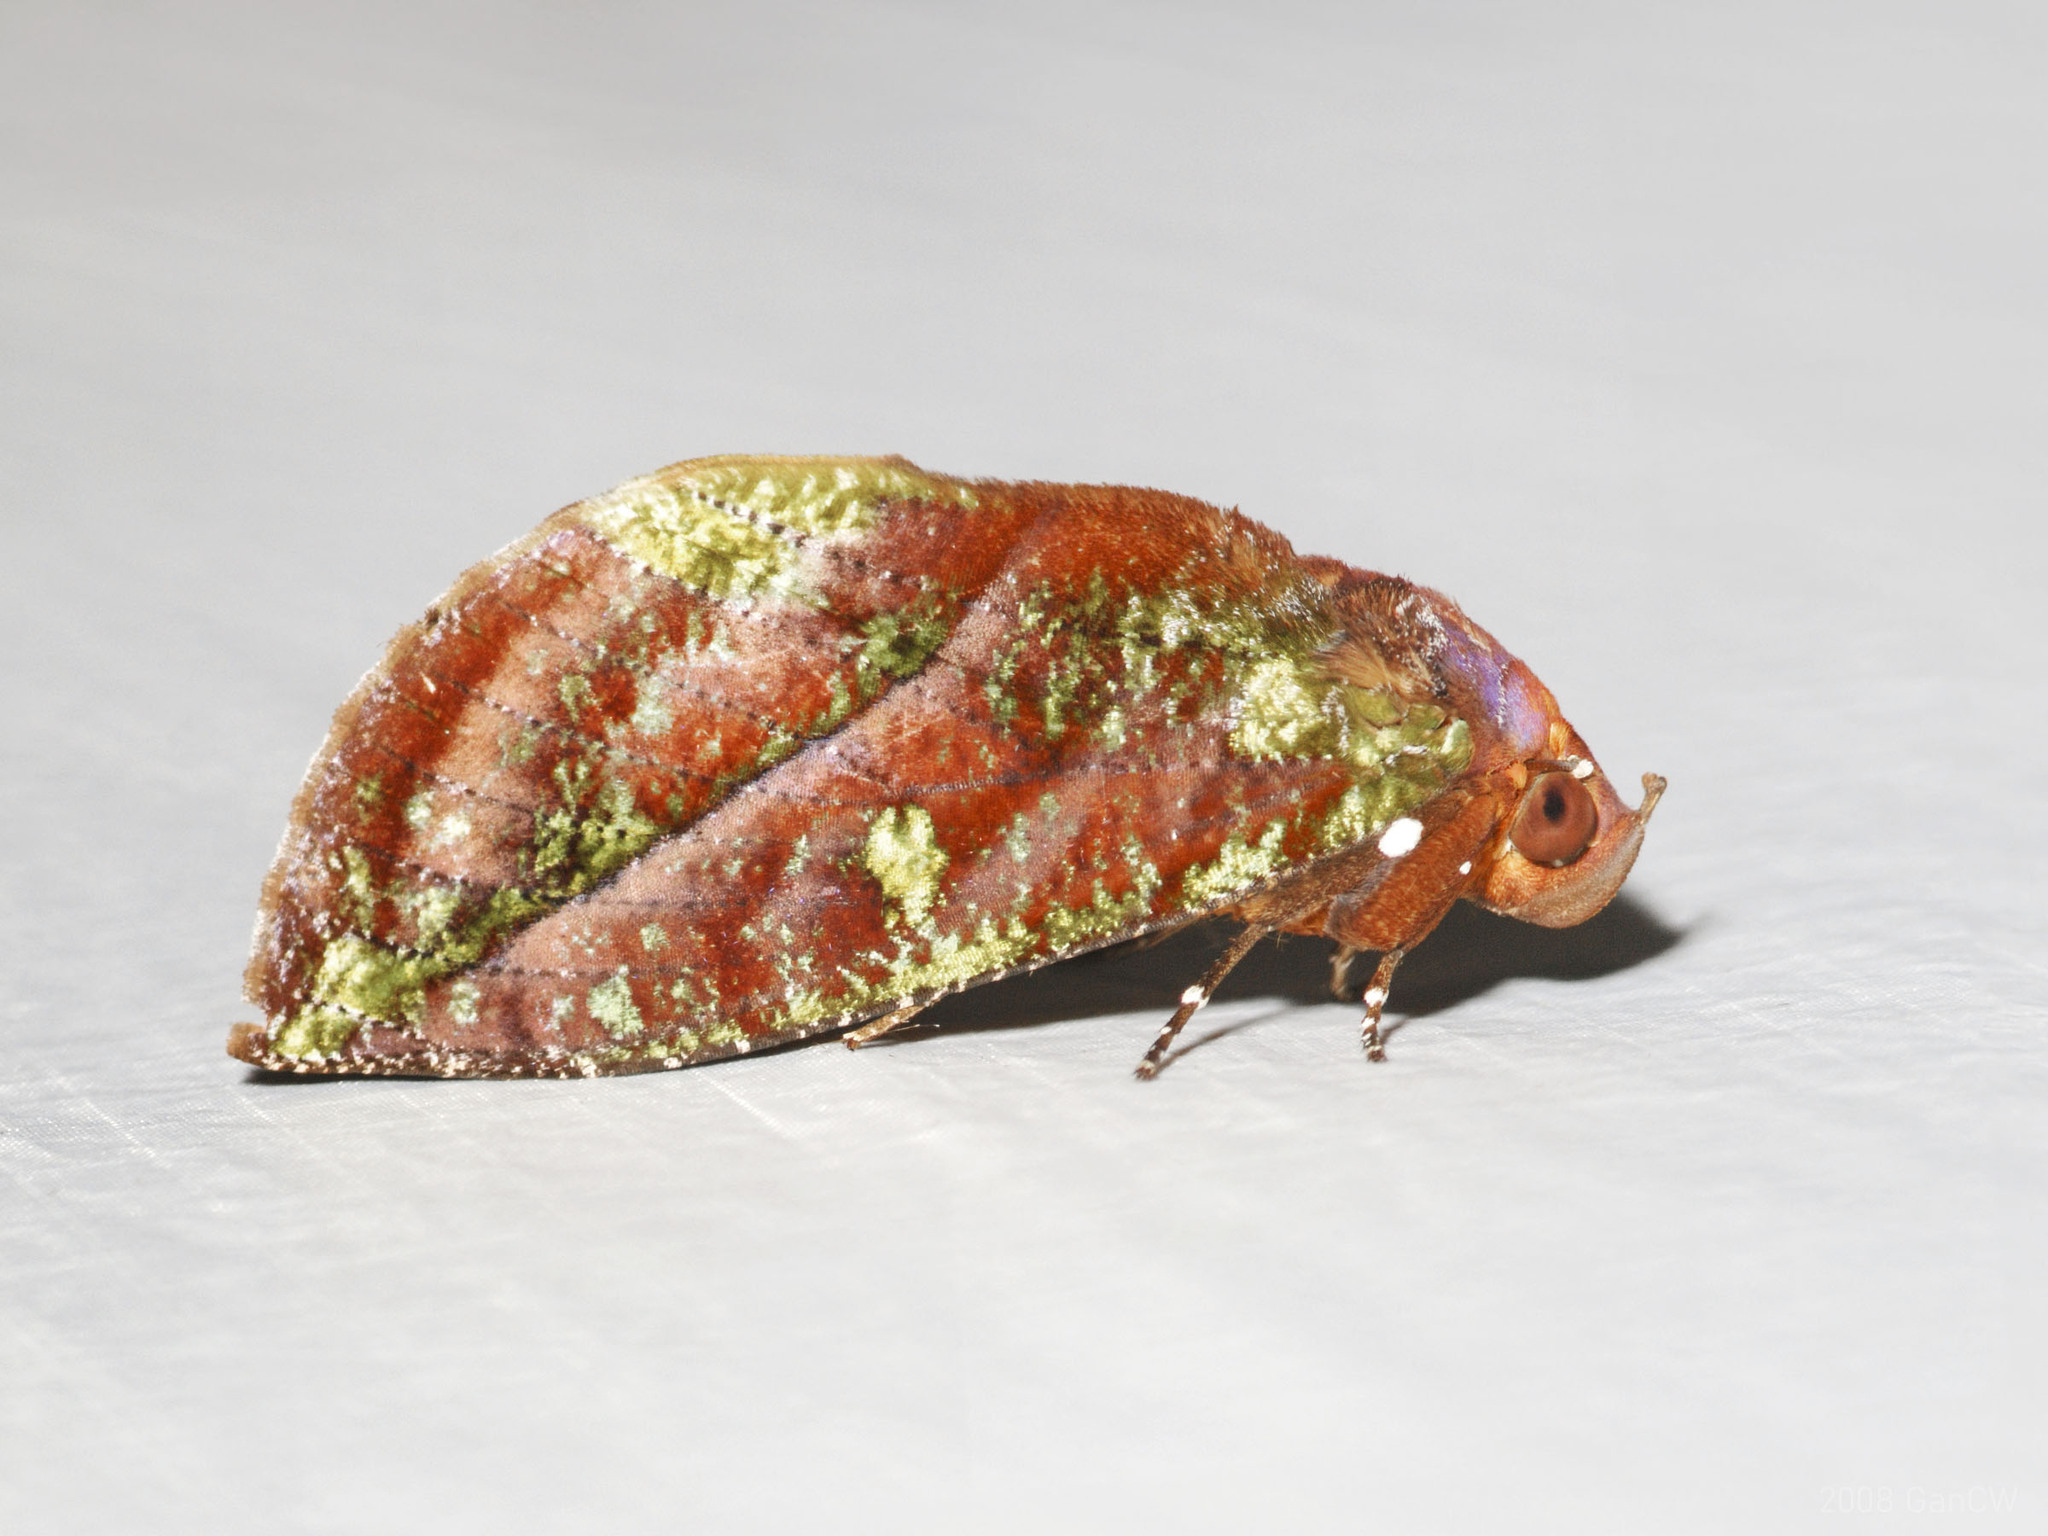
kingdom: Animalia
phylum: Arthropoda
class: Insecta
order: Lepidoptera
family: Erebidae
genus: Eudocima
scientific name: Eudocima mionopastea
